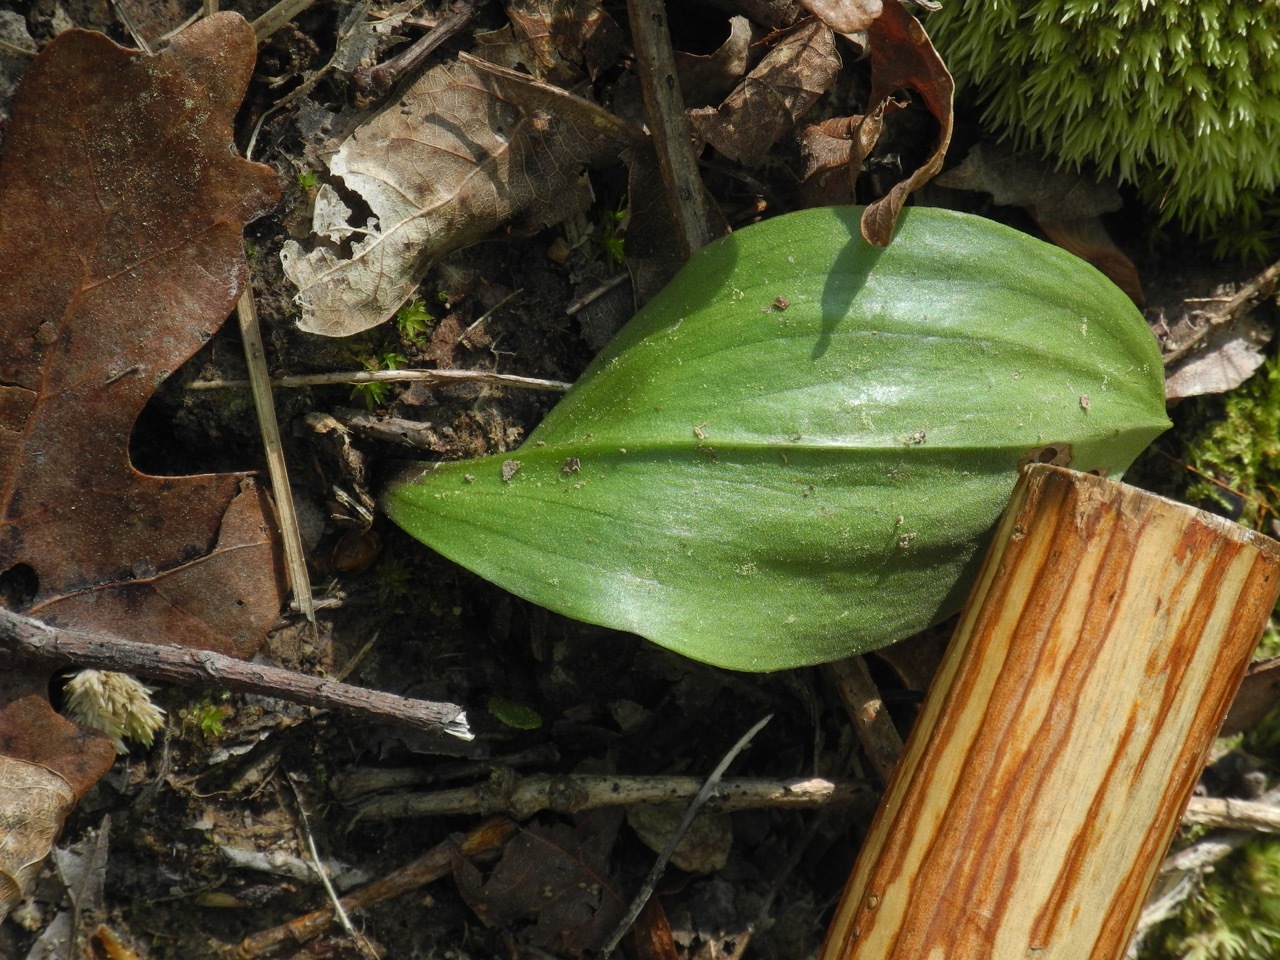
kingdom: Plantae
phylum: Tracheophyta
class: Liliopsida
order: Asparagales
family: Orchidaceae
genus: Cypripedium
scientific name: Cypripedium acaule
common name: Pink lady's-slipper
